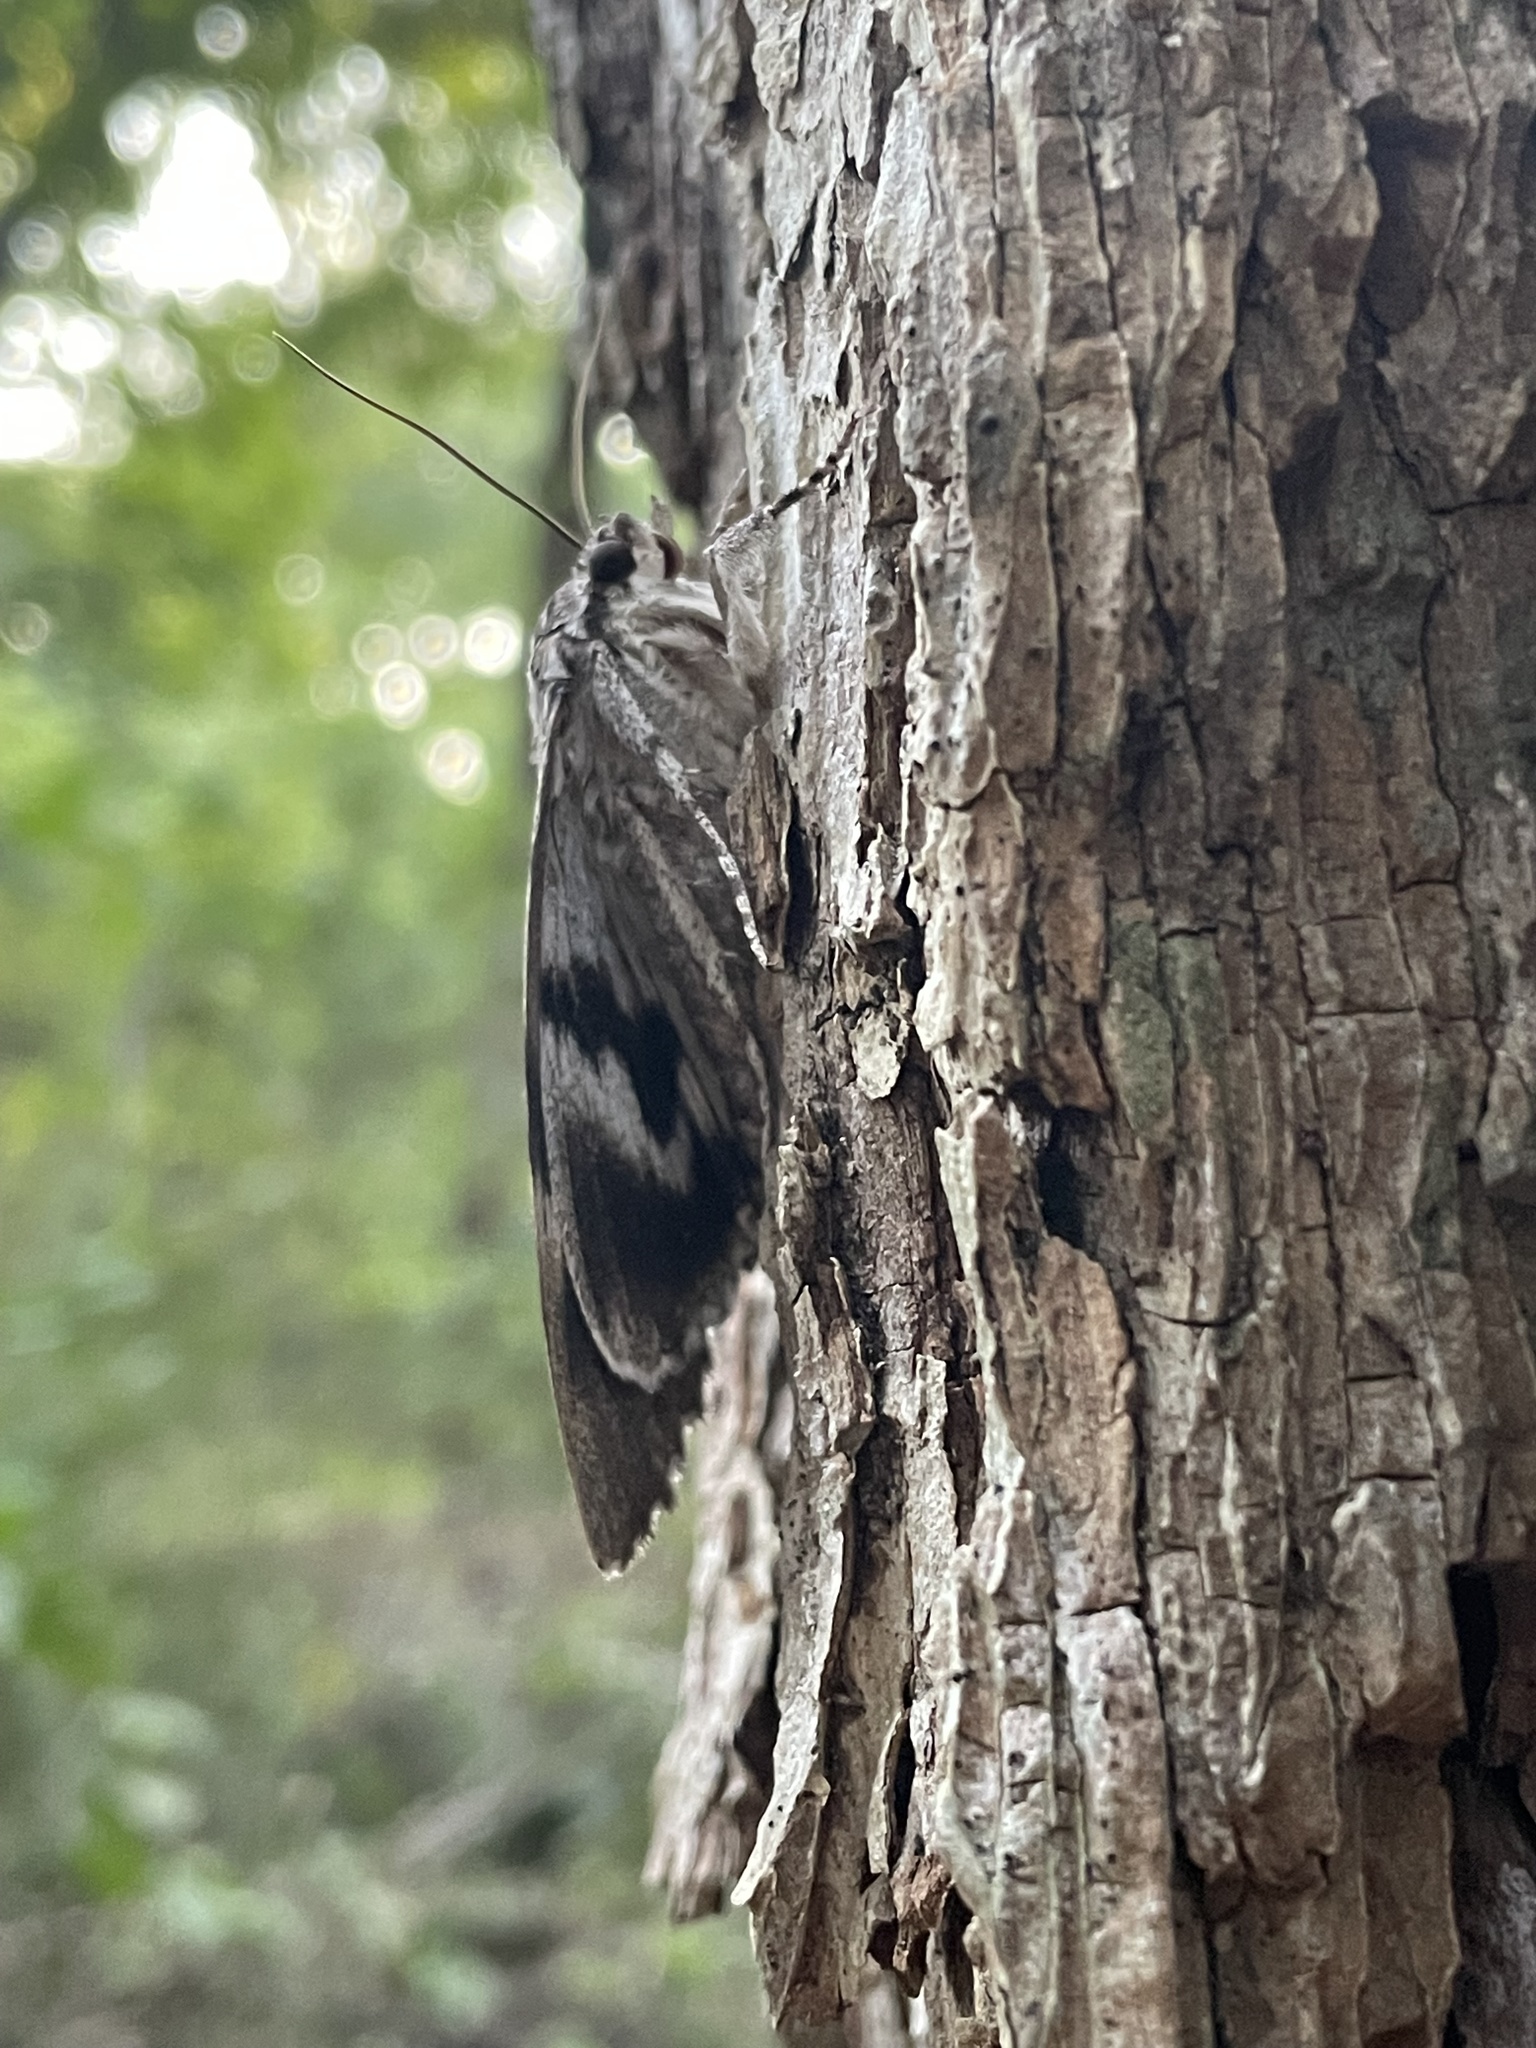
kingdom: Animalia
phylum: Arthropoda
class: Insecta
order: Lepidoptera
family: Erebidae
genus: Catocala
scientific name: Catocala maestosa
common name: Sad underwing
